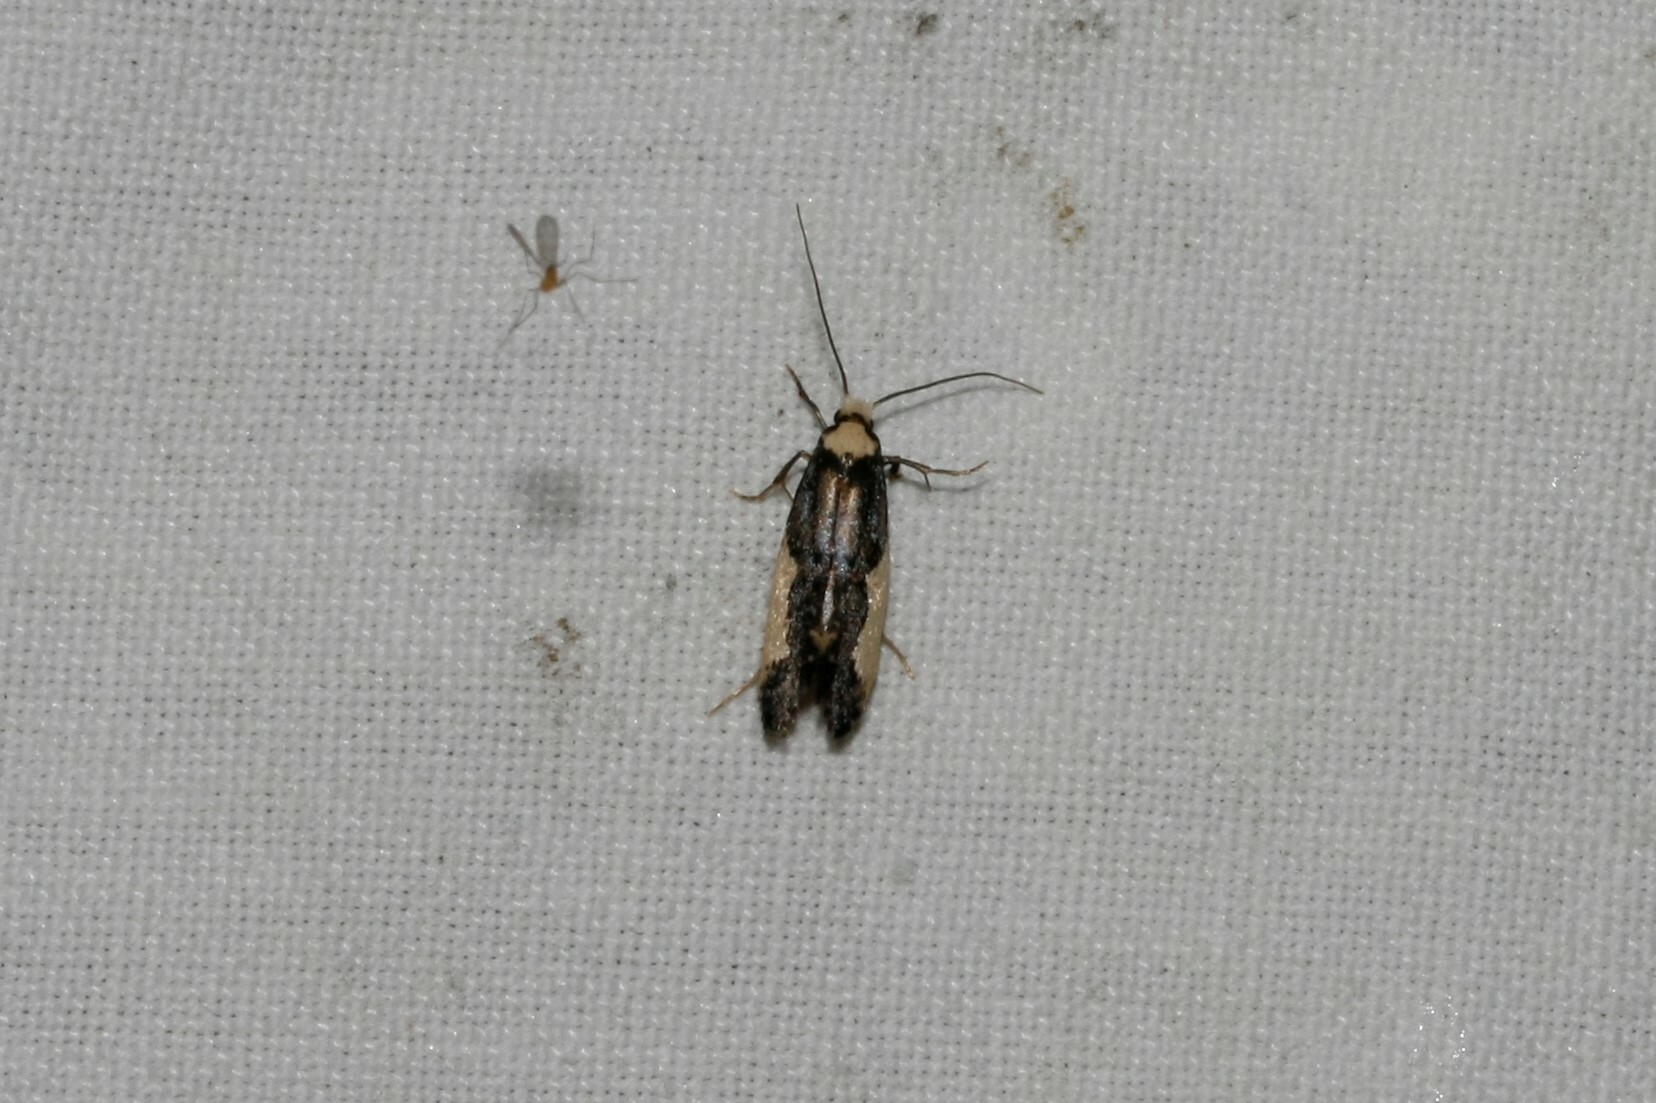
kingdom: Animalia
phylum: Arthropoda
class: Insecta
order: Lepidoptera
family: Tineidae
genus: Monopis
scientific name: Monopis monachella
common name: Moth
